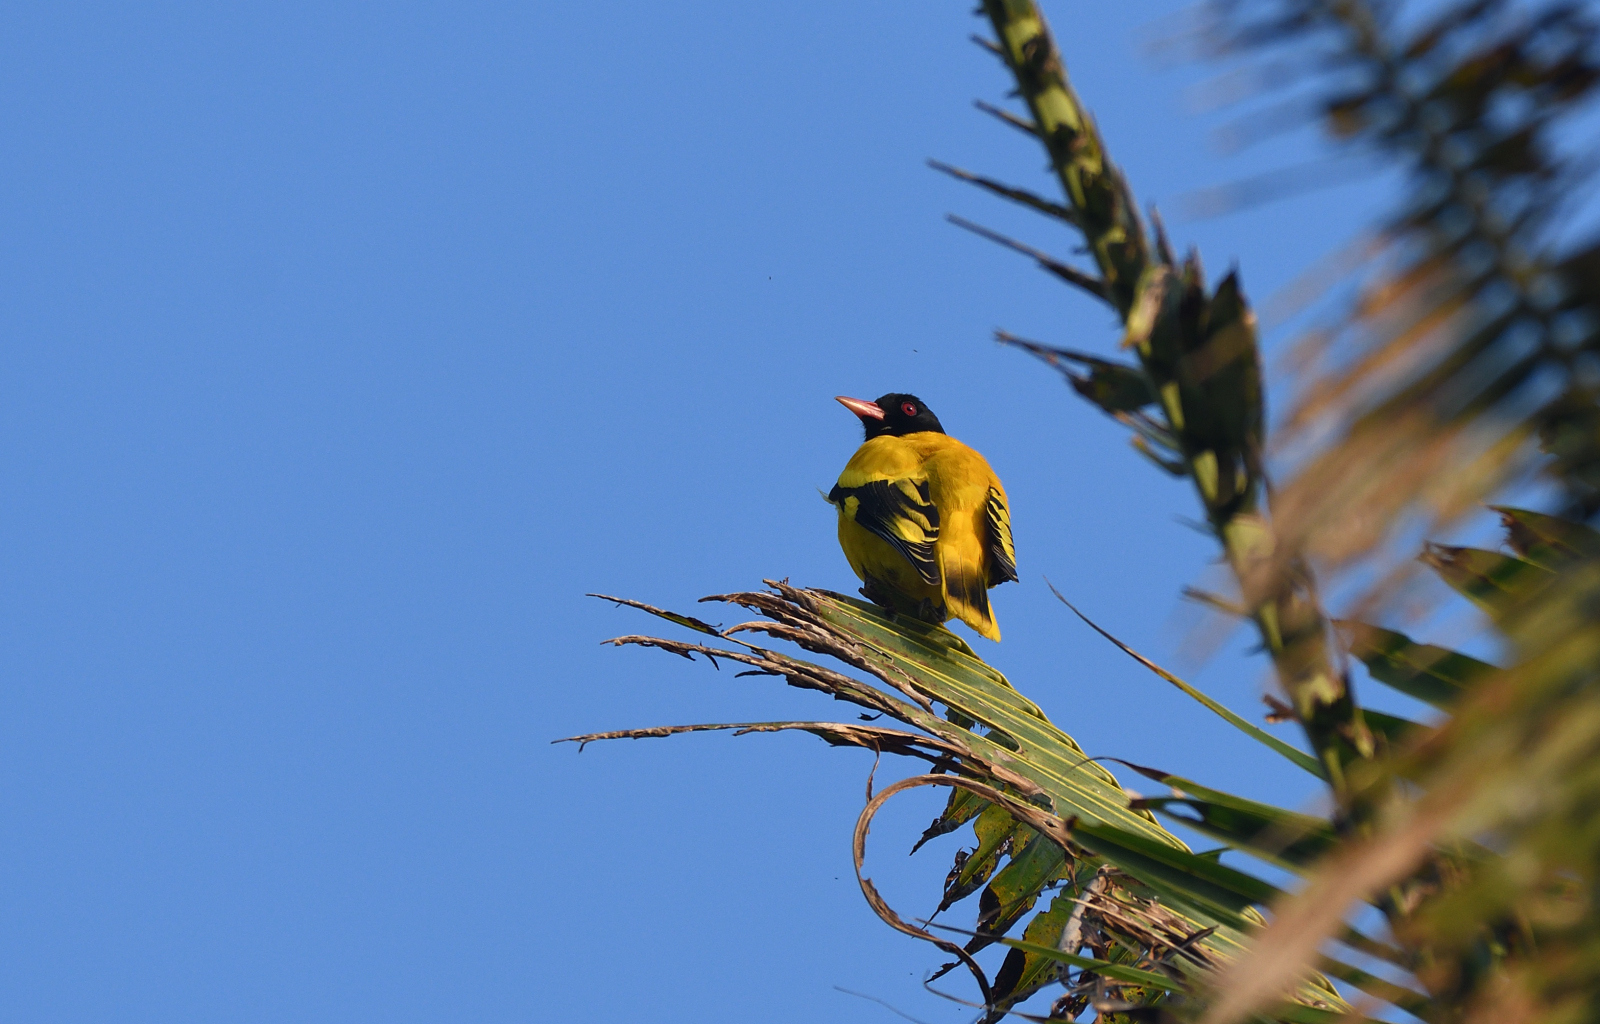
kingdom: Animalia
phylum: Chordata
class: Aves
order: Passeriformes
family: Oriolidae
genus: Oriolus
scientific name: Oriolus xanthornus
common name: Black-hooded oriole
